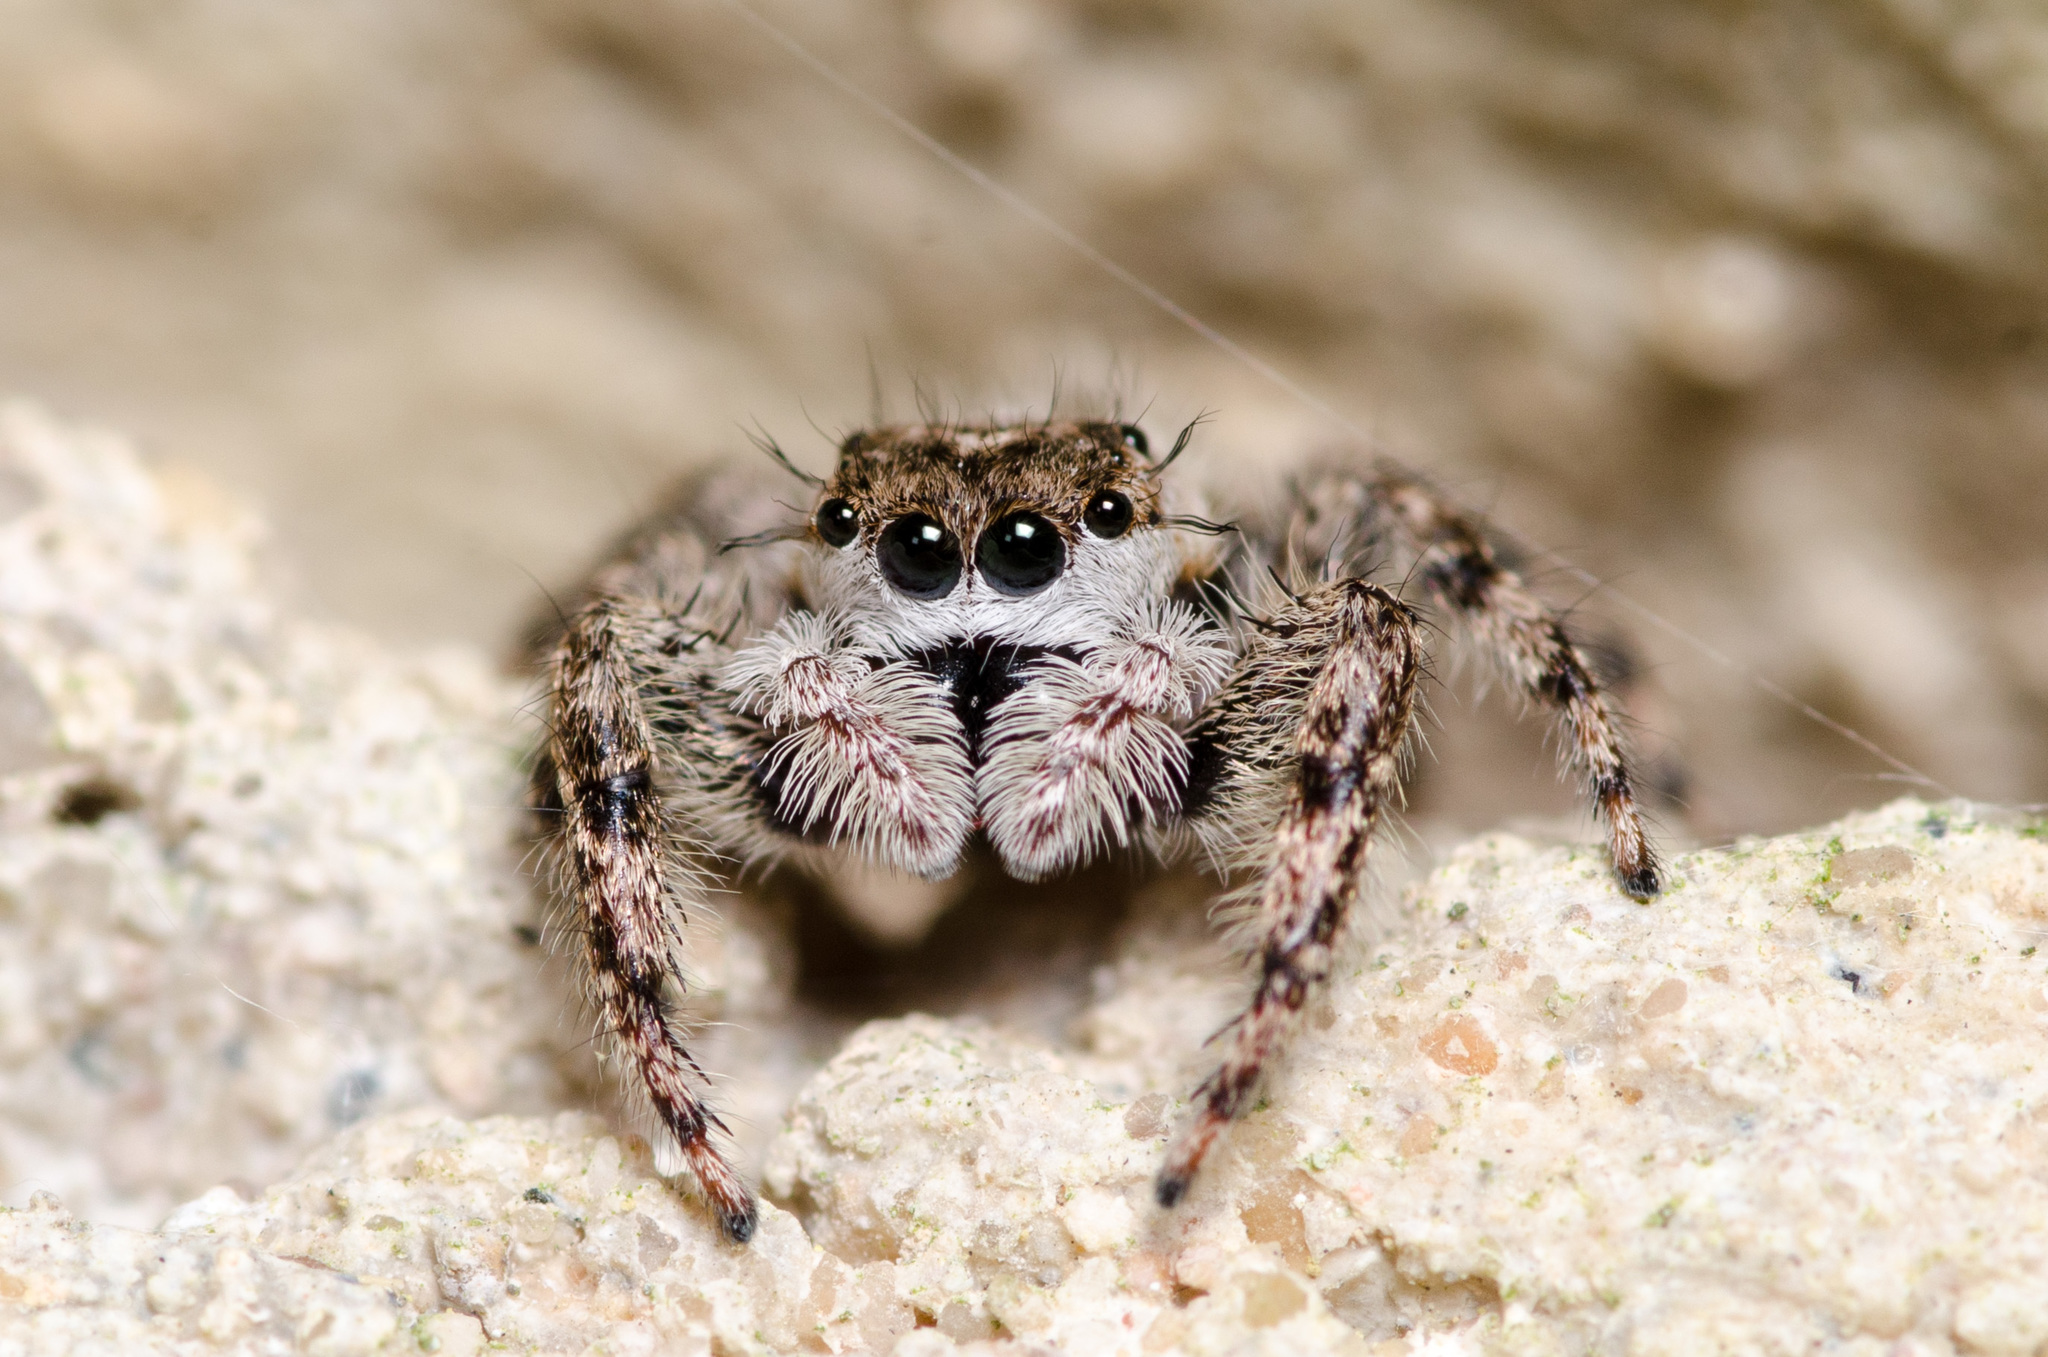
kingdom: Animalia
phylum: Arthropoda
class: Arachnida
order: Araneae
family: Salticidae
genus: Platycryptus
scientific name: Platycryptus undatus
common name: Tan jumping spider
